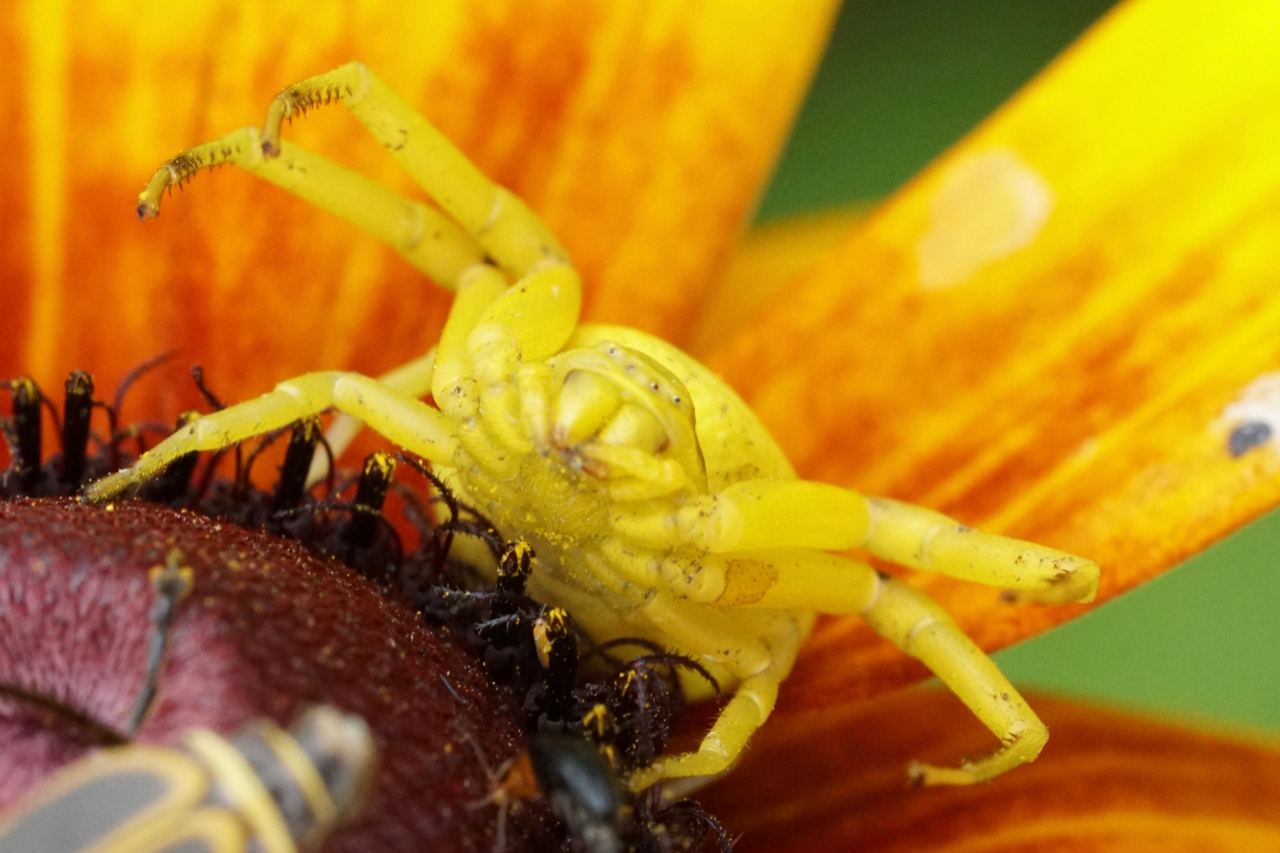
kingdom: Animalia
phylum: Arthropoda
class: Arachnida
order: Araneae
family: Thomisidae
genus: Misumenoides
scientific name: Misumenoides formosipes
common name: White-banded crab spider
